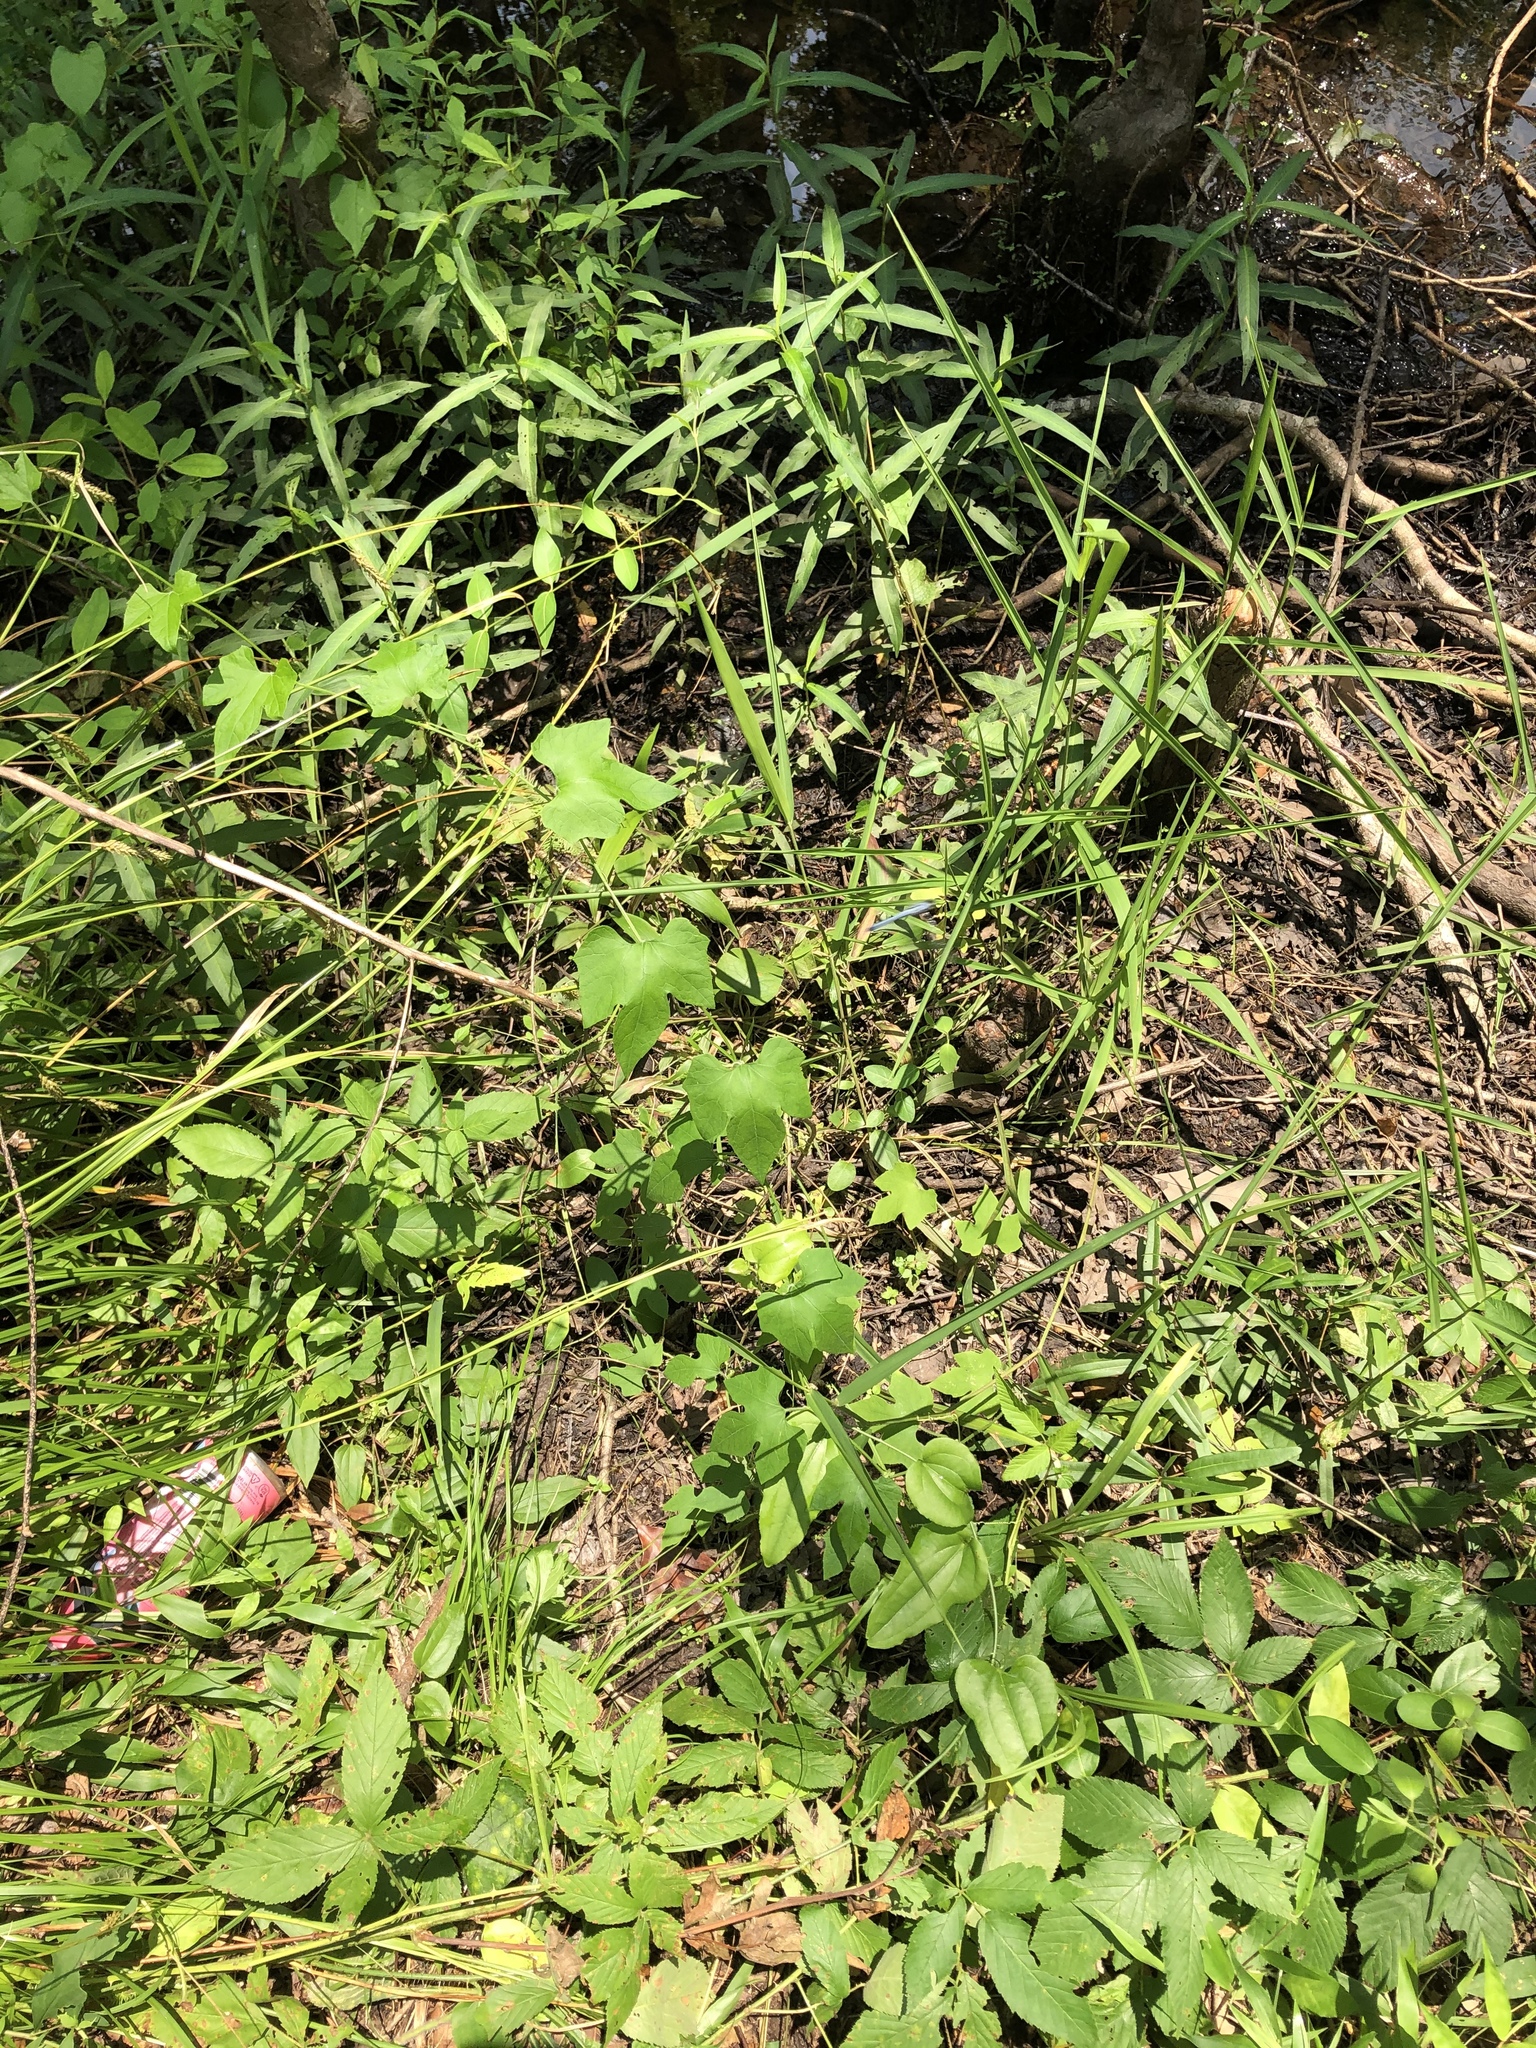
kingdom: Plantae
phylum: Tracheophyta
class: Magnoliopsida
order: Cucurbitales
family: Cucurbitaceae
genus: Cayaponia
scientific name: Cayaponia quinqueloba
